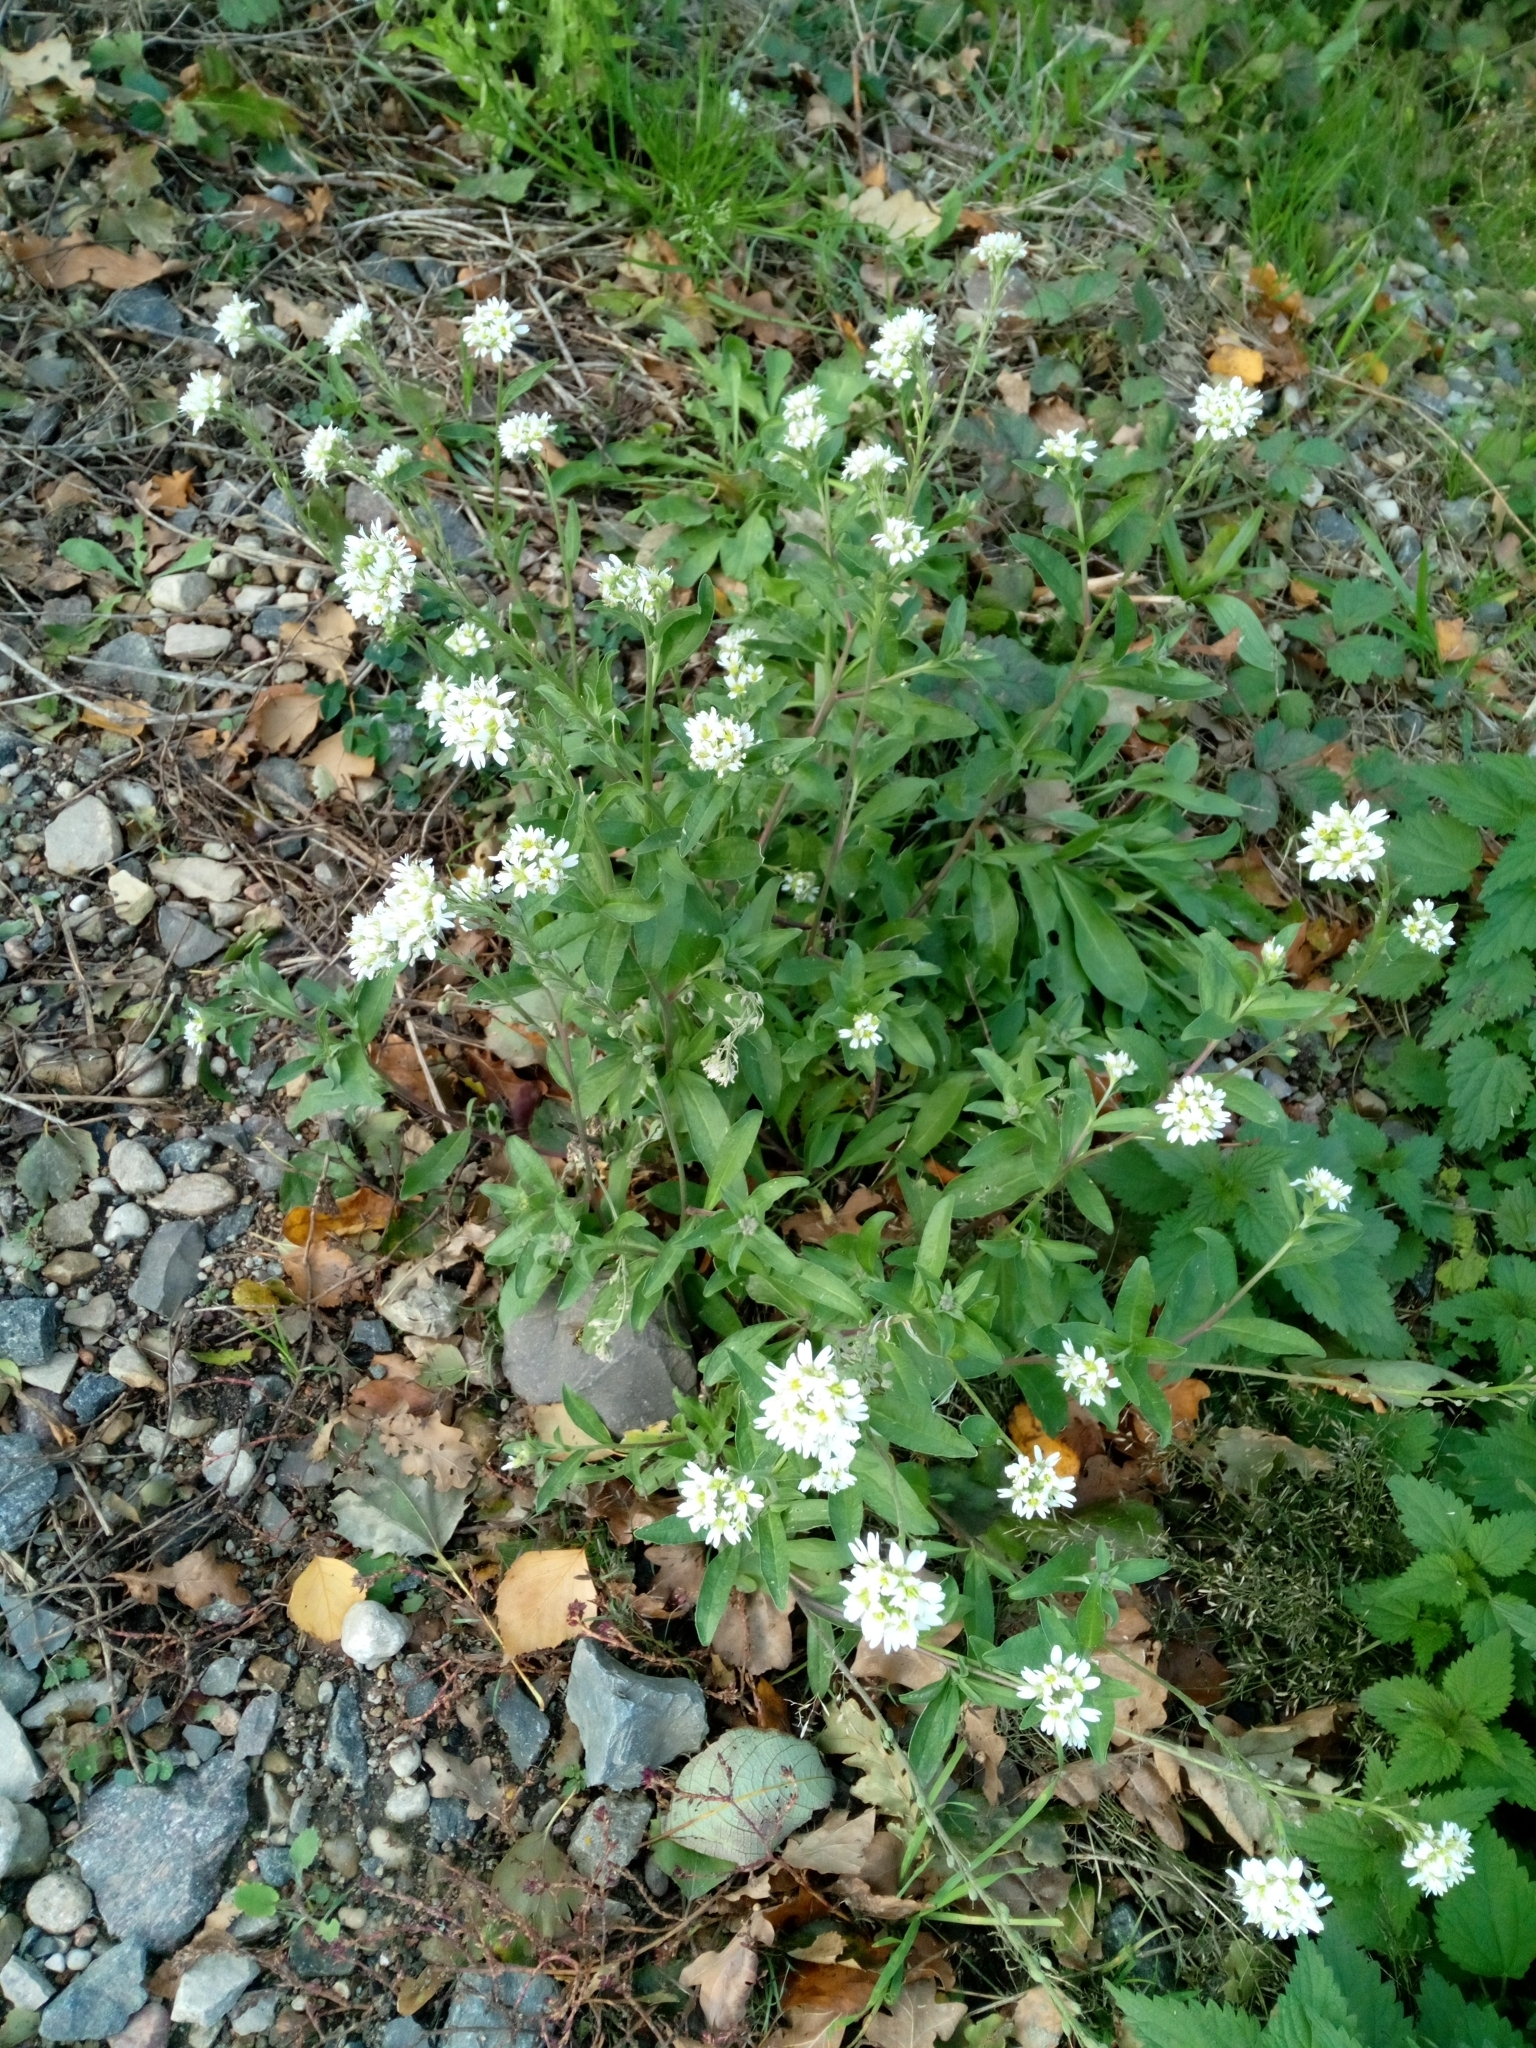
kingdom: Plantae
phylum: Tracheophyta
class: Magnoliopsida
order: Brassicales
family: Brassicaceae
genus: Berteroa
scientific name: Berteroa incana
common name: Hoary alison
